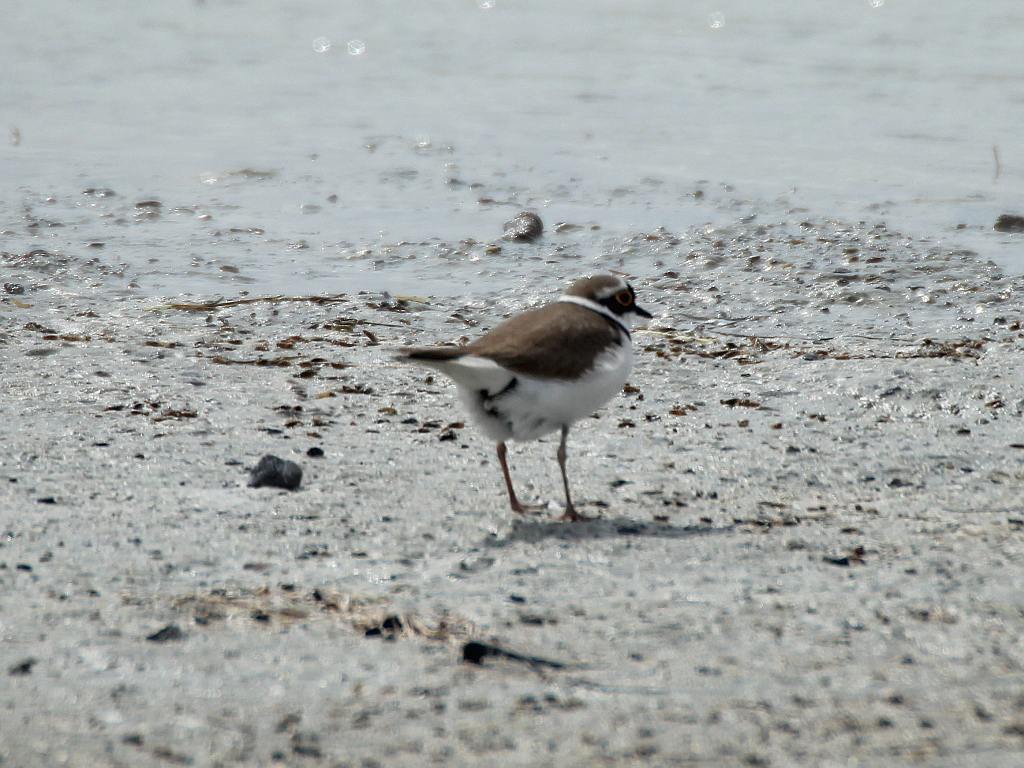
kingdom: Animalia
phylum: Chordata
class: Aves
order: Charadriiformes
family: Charadriidae
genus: Charadrius
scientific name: Charadrius dubius
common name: Little ringed plover
